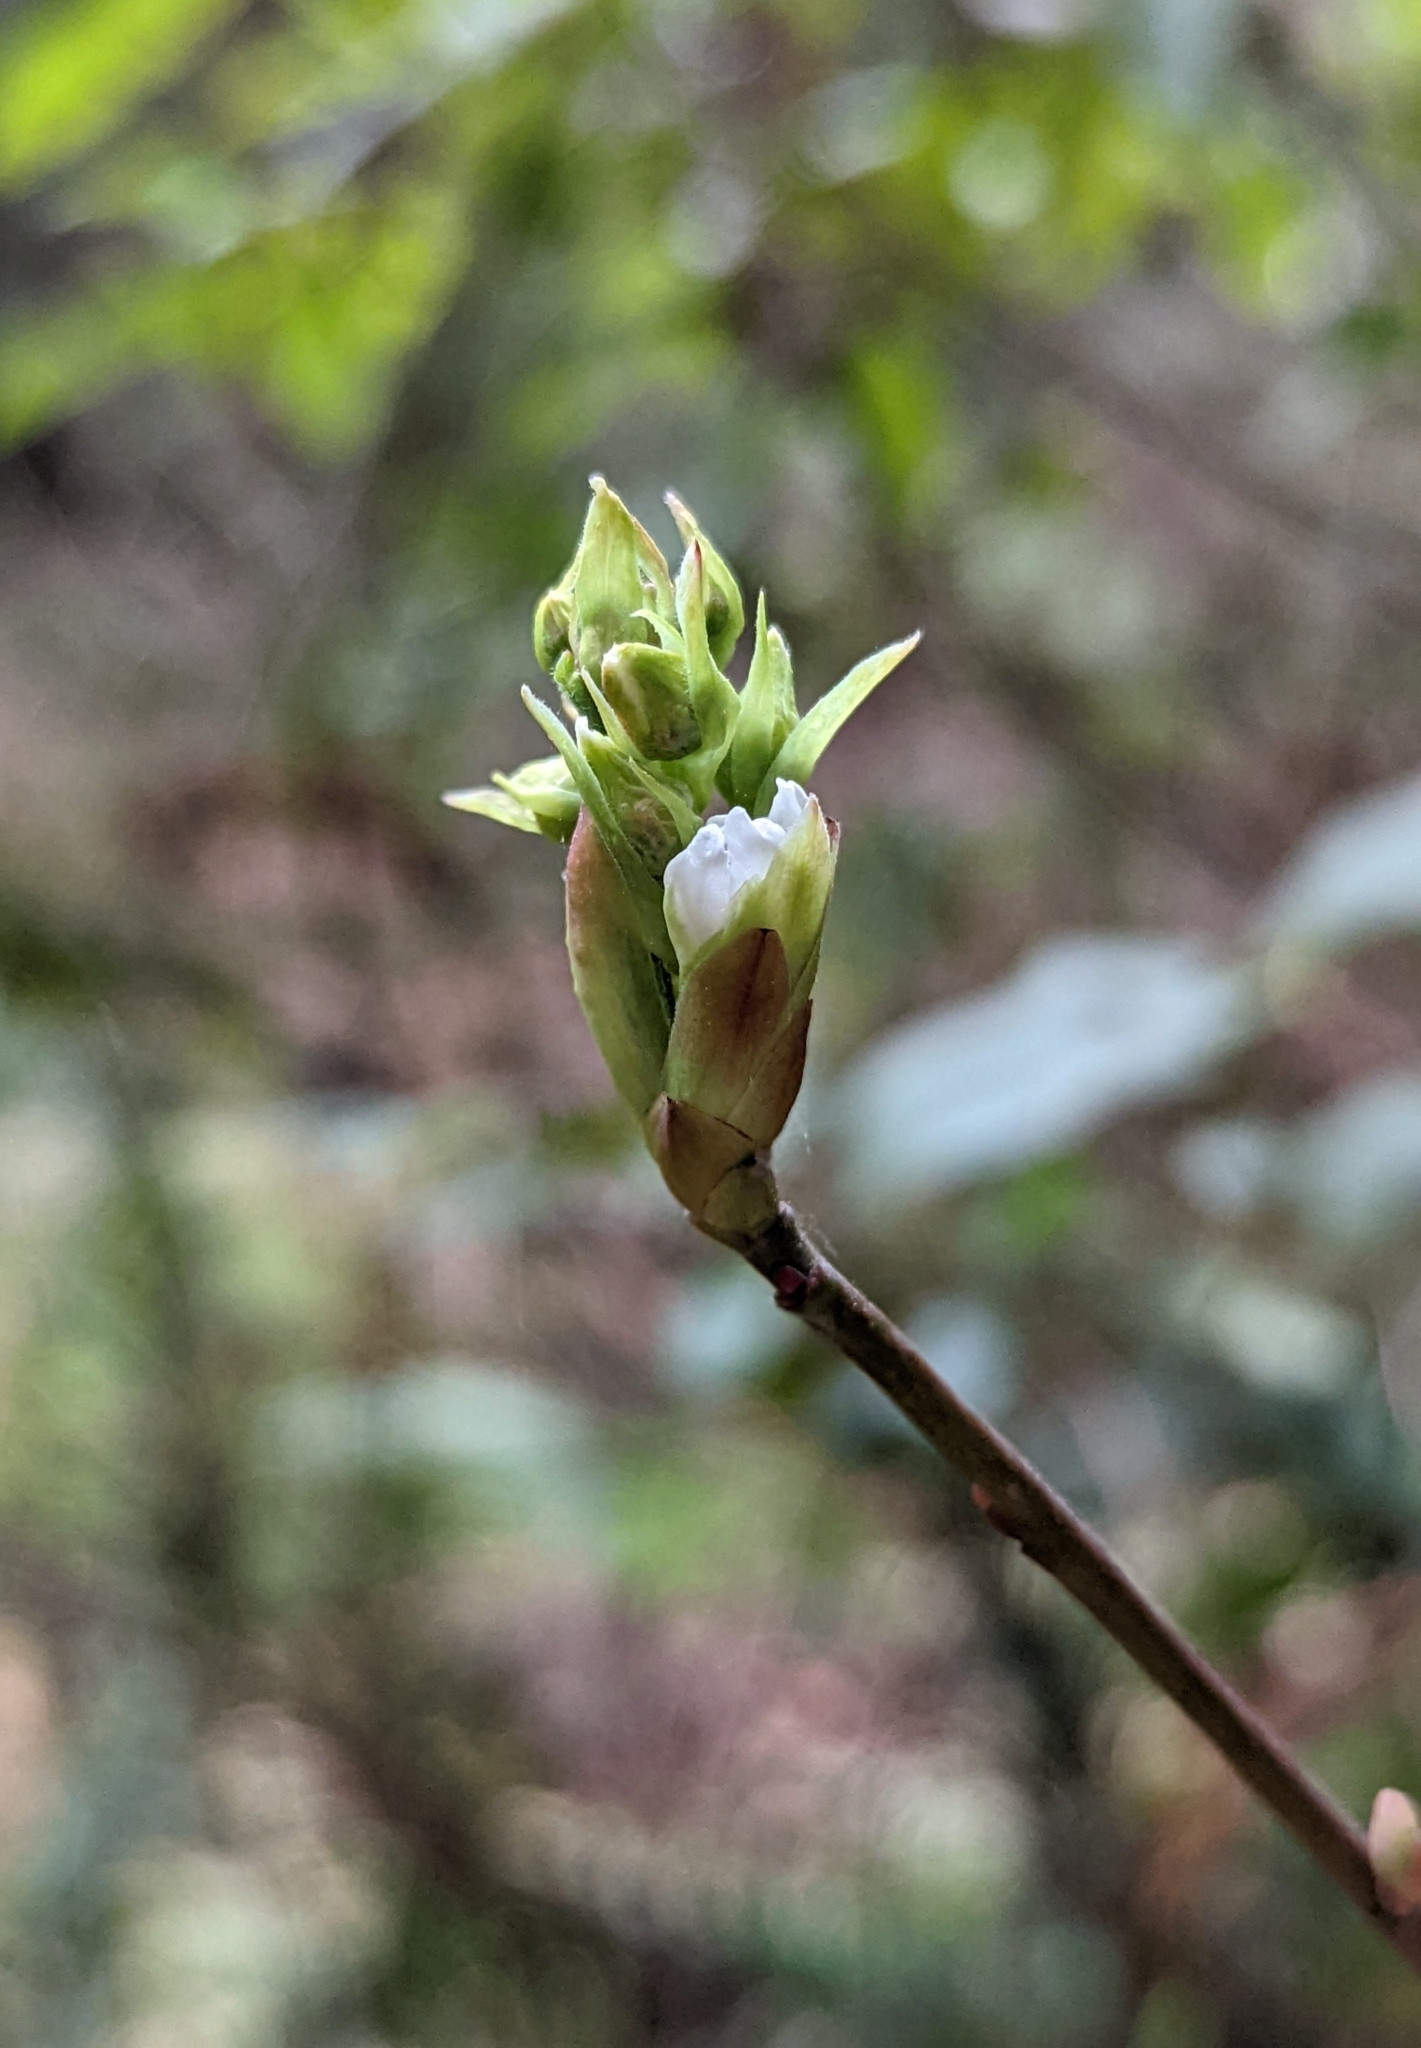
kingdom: Plantae
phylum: Tracheophyta
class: Magnoliopsida
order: Rosales
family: Rosaceae
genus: Oemleria
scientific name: Oemleria cerasiformis
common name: Osoberry
